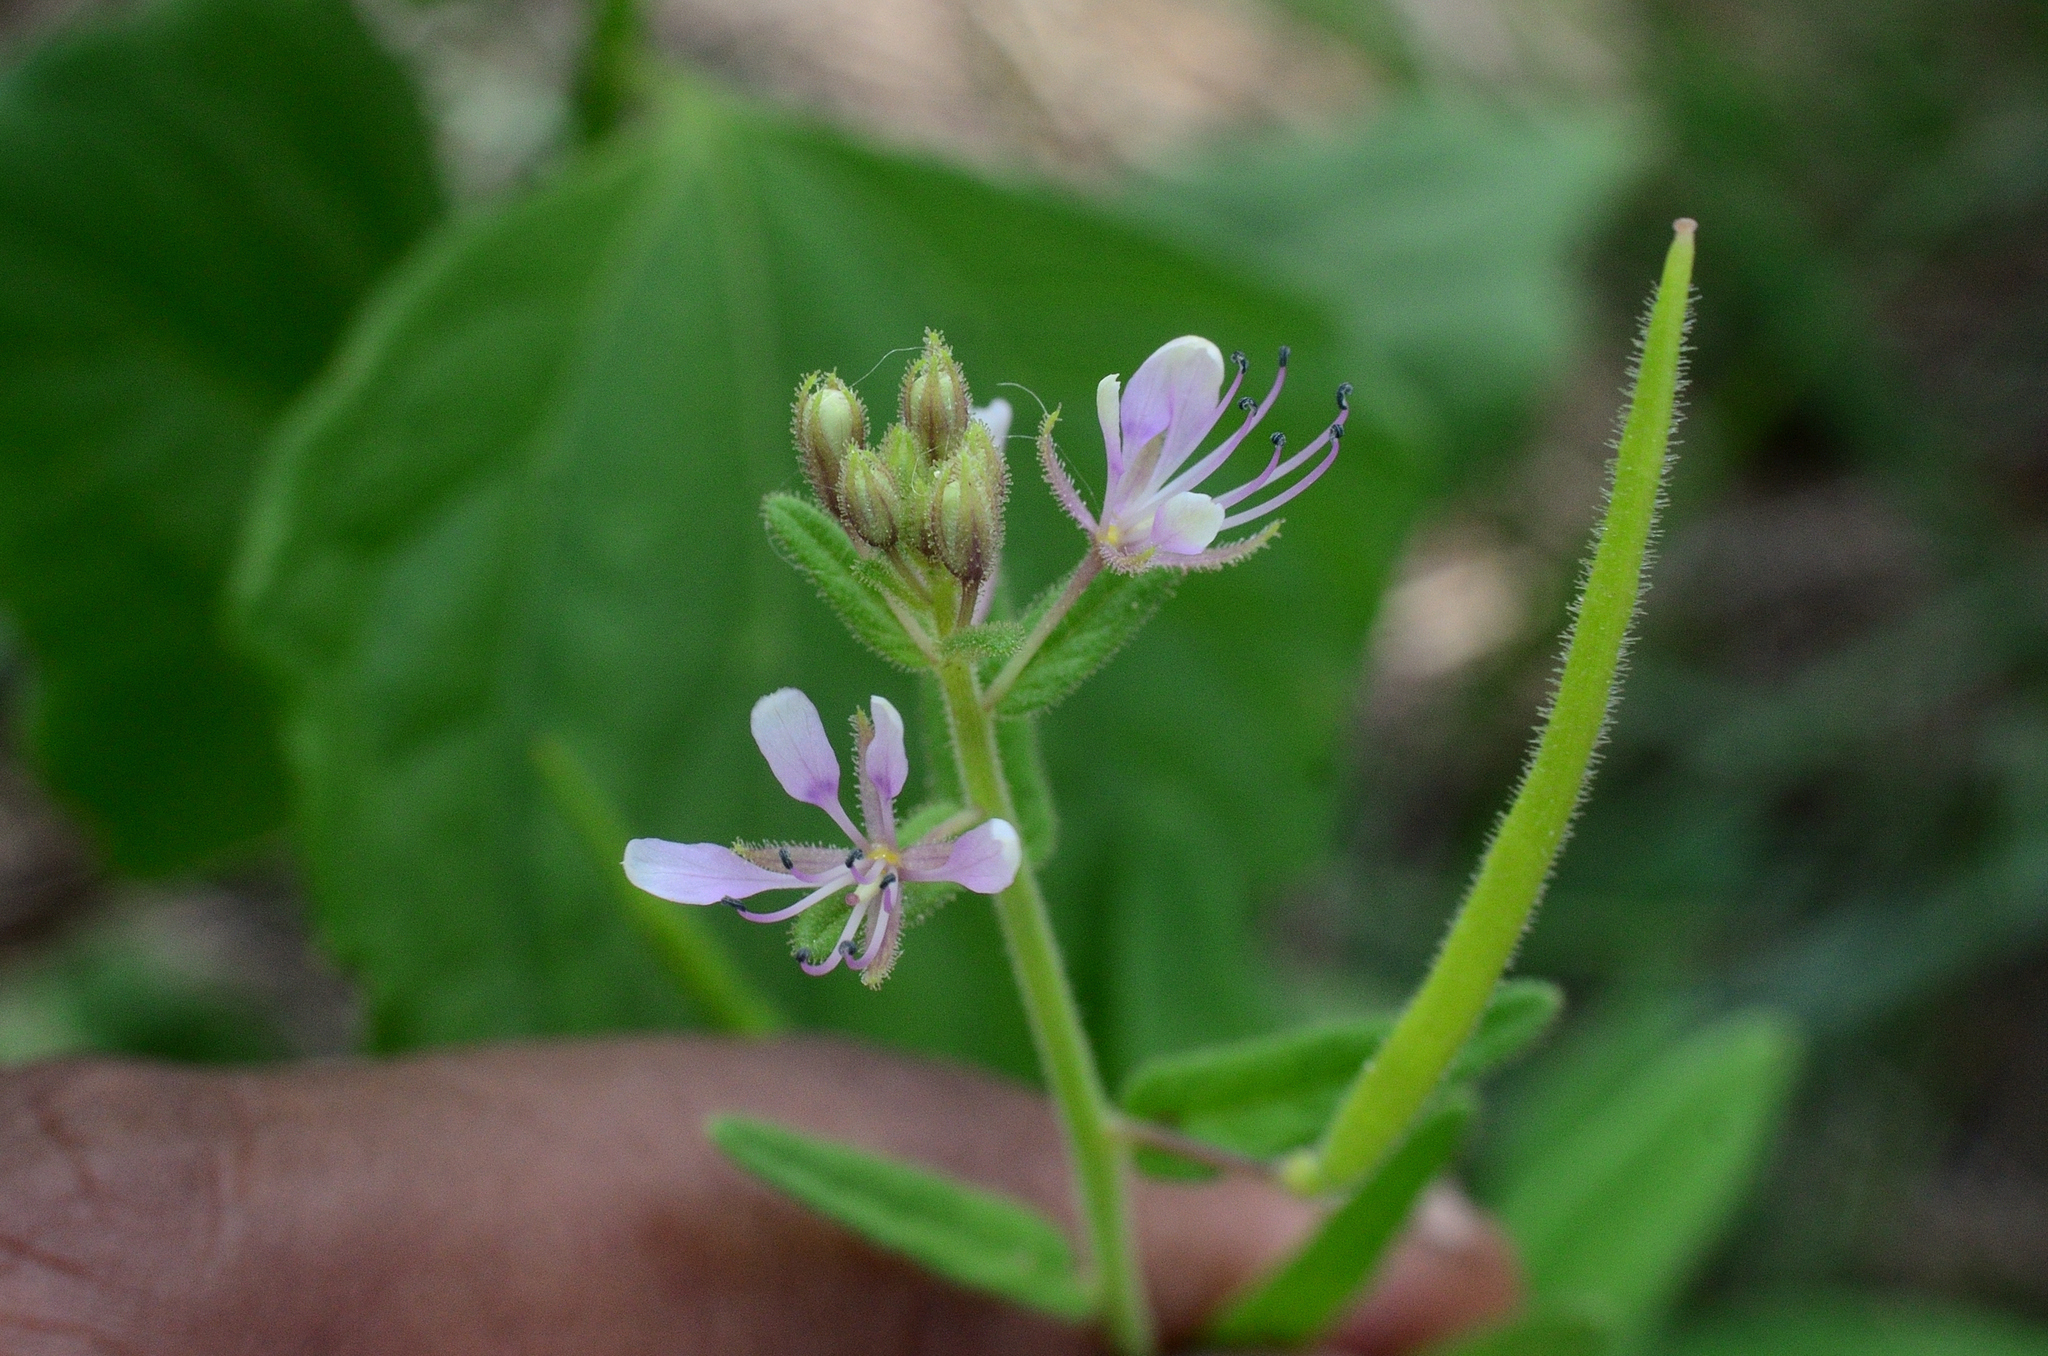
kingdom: Plantae
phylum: Tracheophyta
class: Magnoliopsida
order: Brassicales
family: Cleomaceae
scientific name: Cleomaceae
